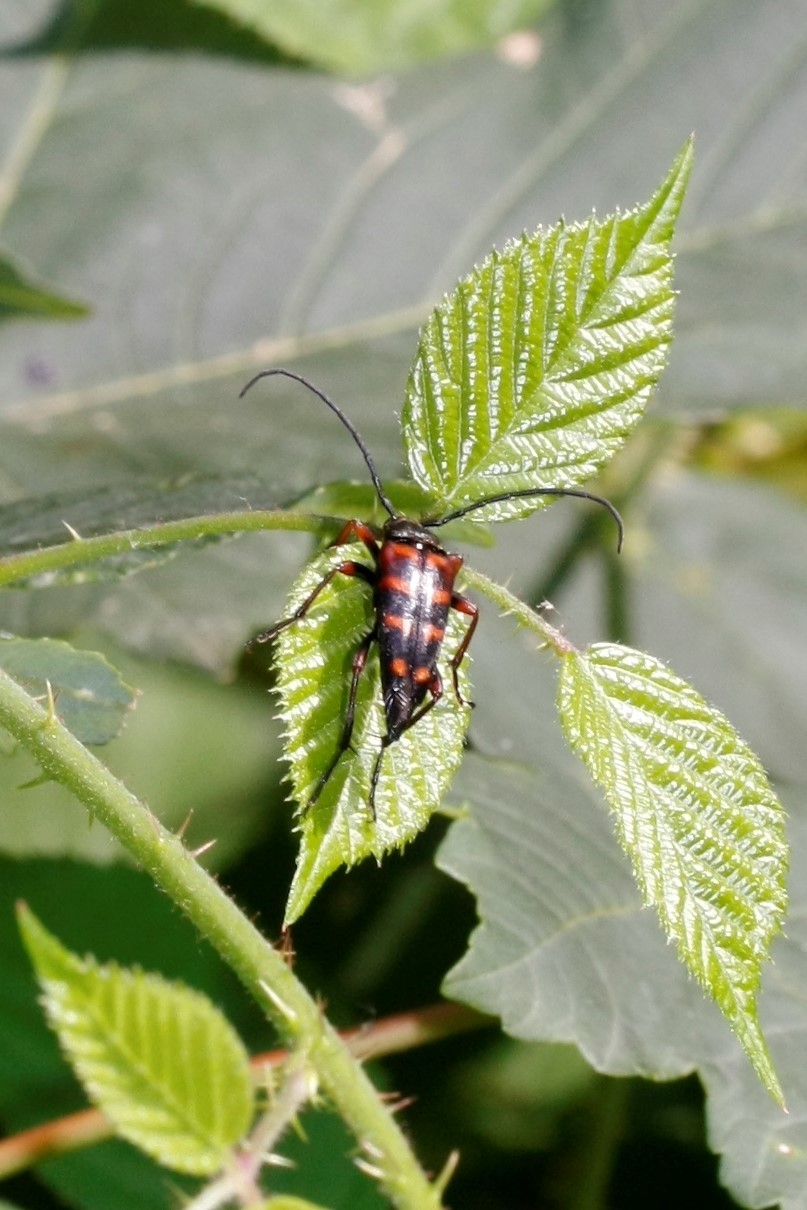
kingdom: Animalia
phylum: Arthropoda
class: Insecta
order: Coleoptera
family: Cerambycidae
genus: Leptura
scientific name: Leptura aurulenta
